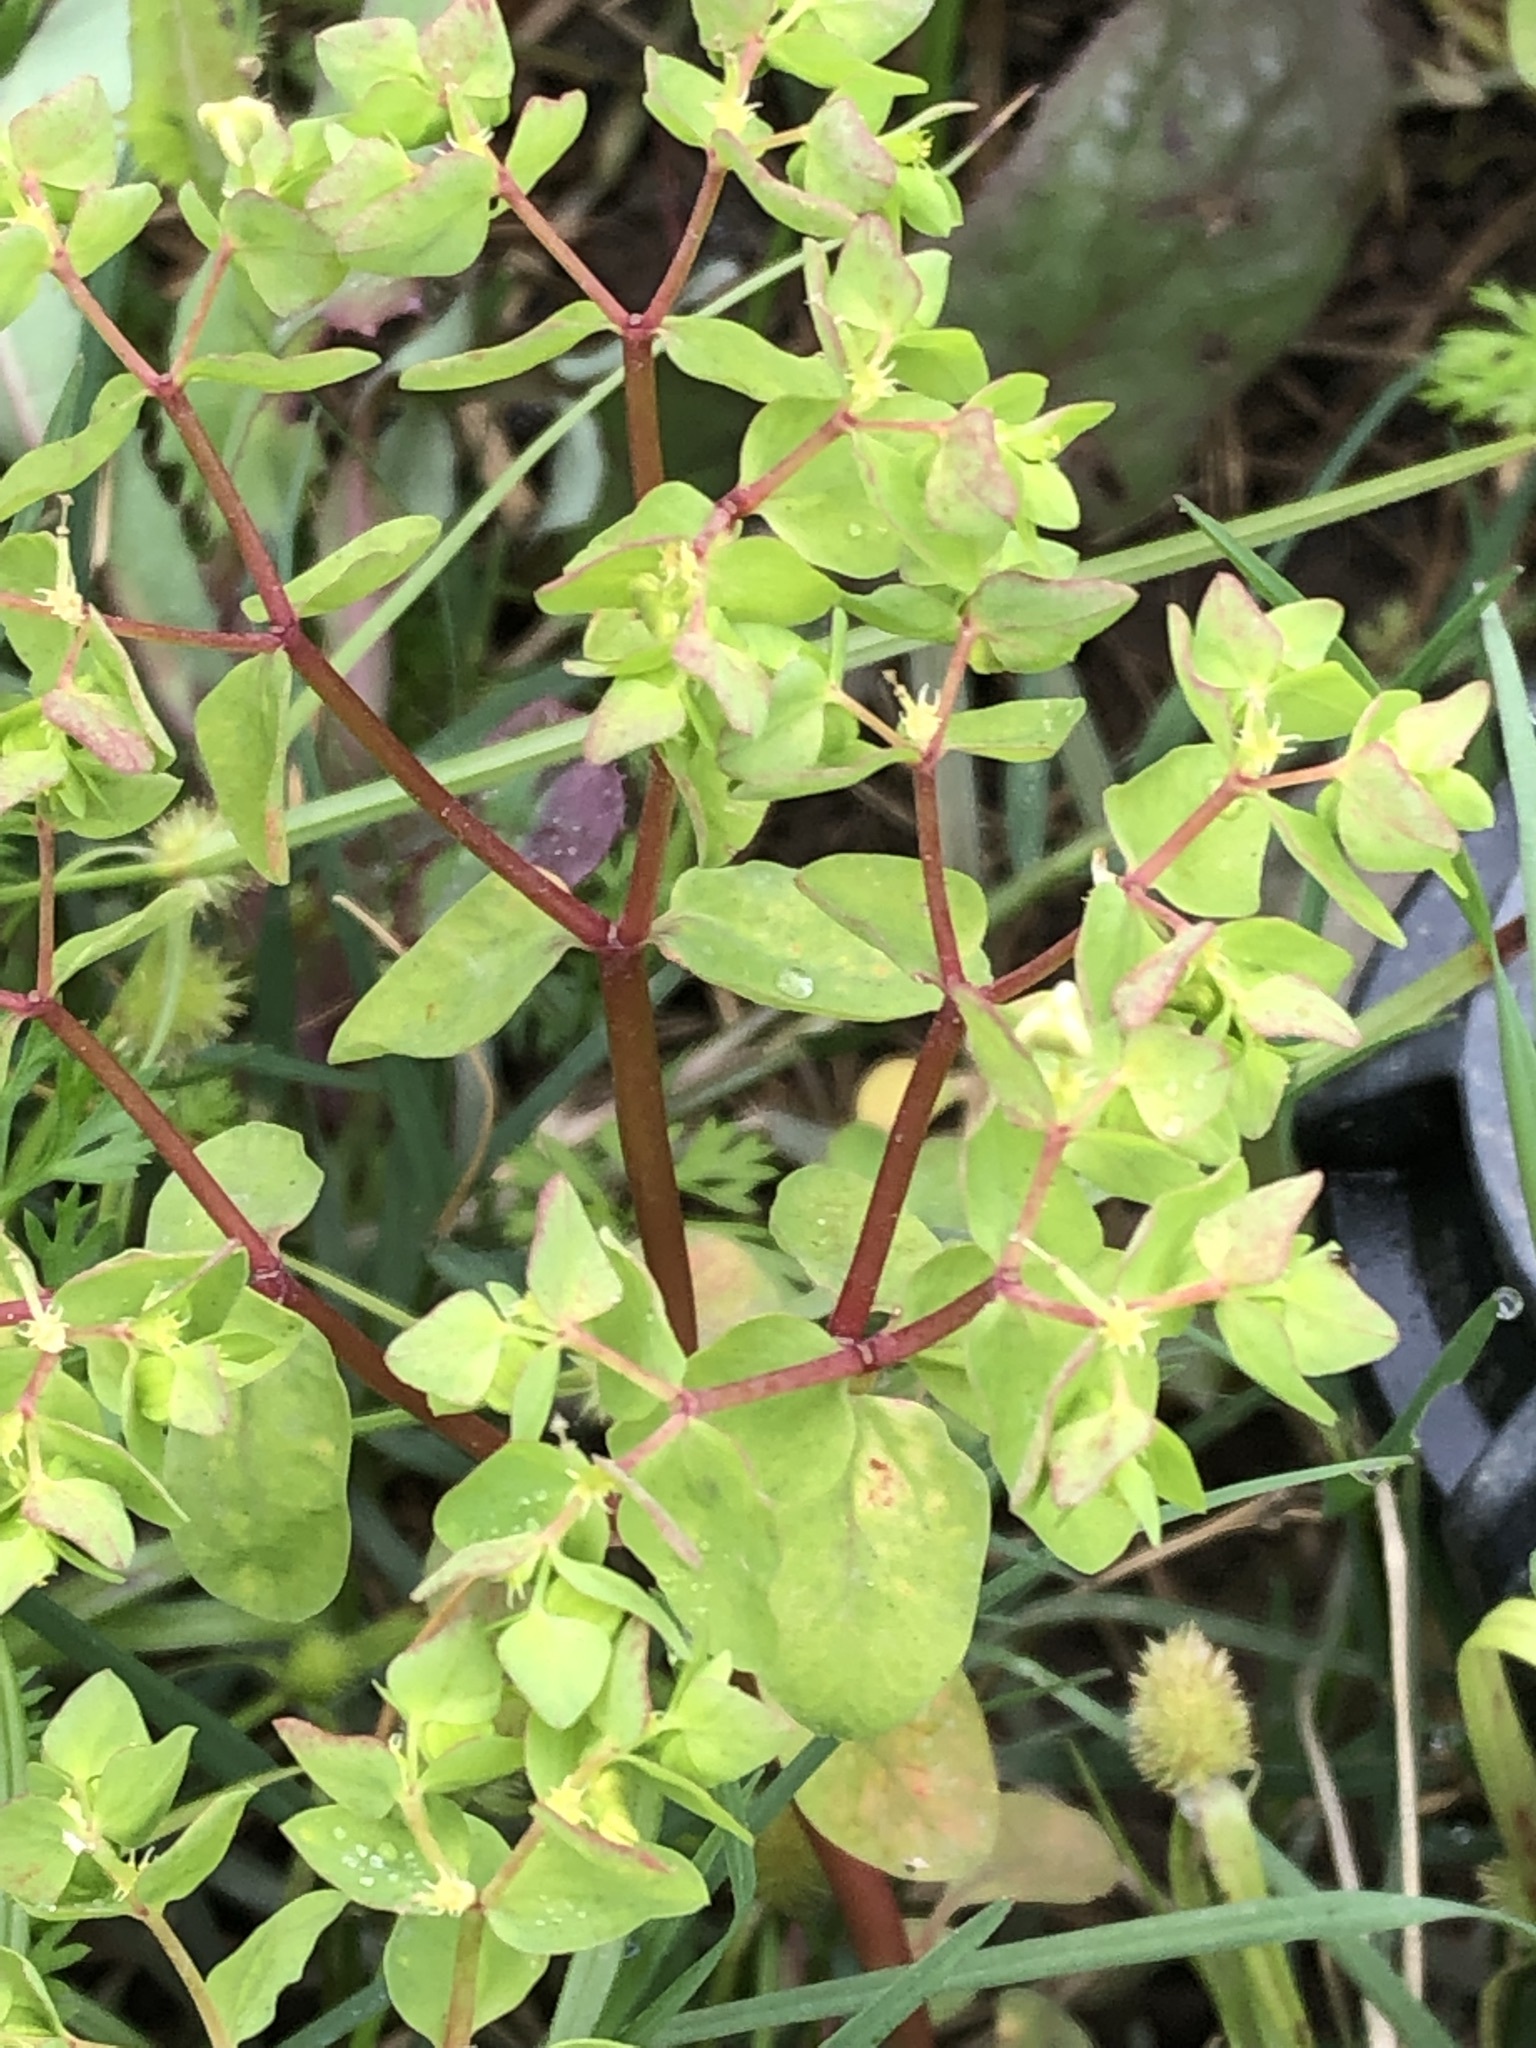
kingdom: Plantae
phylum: Tracheophyta
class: Magnoliopsida
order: Malpighiales
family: Euphorbiaceae
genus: Euphorbia
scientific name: Euphorbia peplus
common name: Petty spurge
